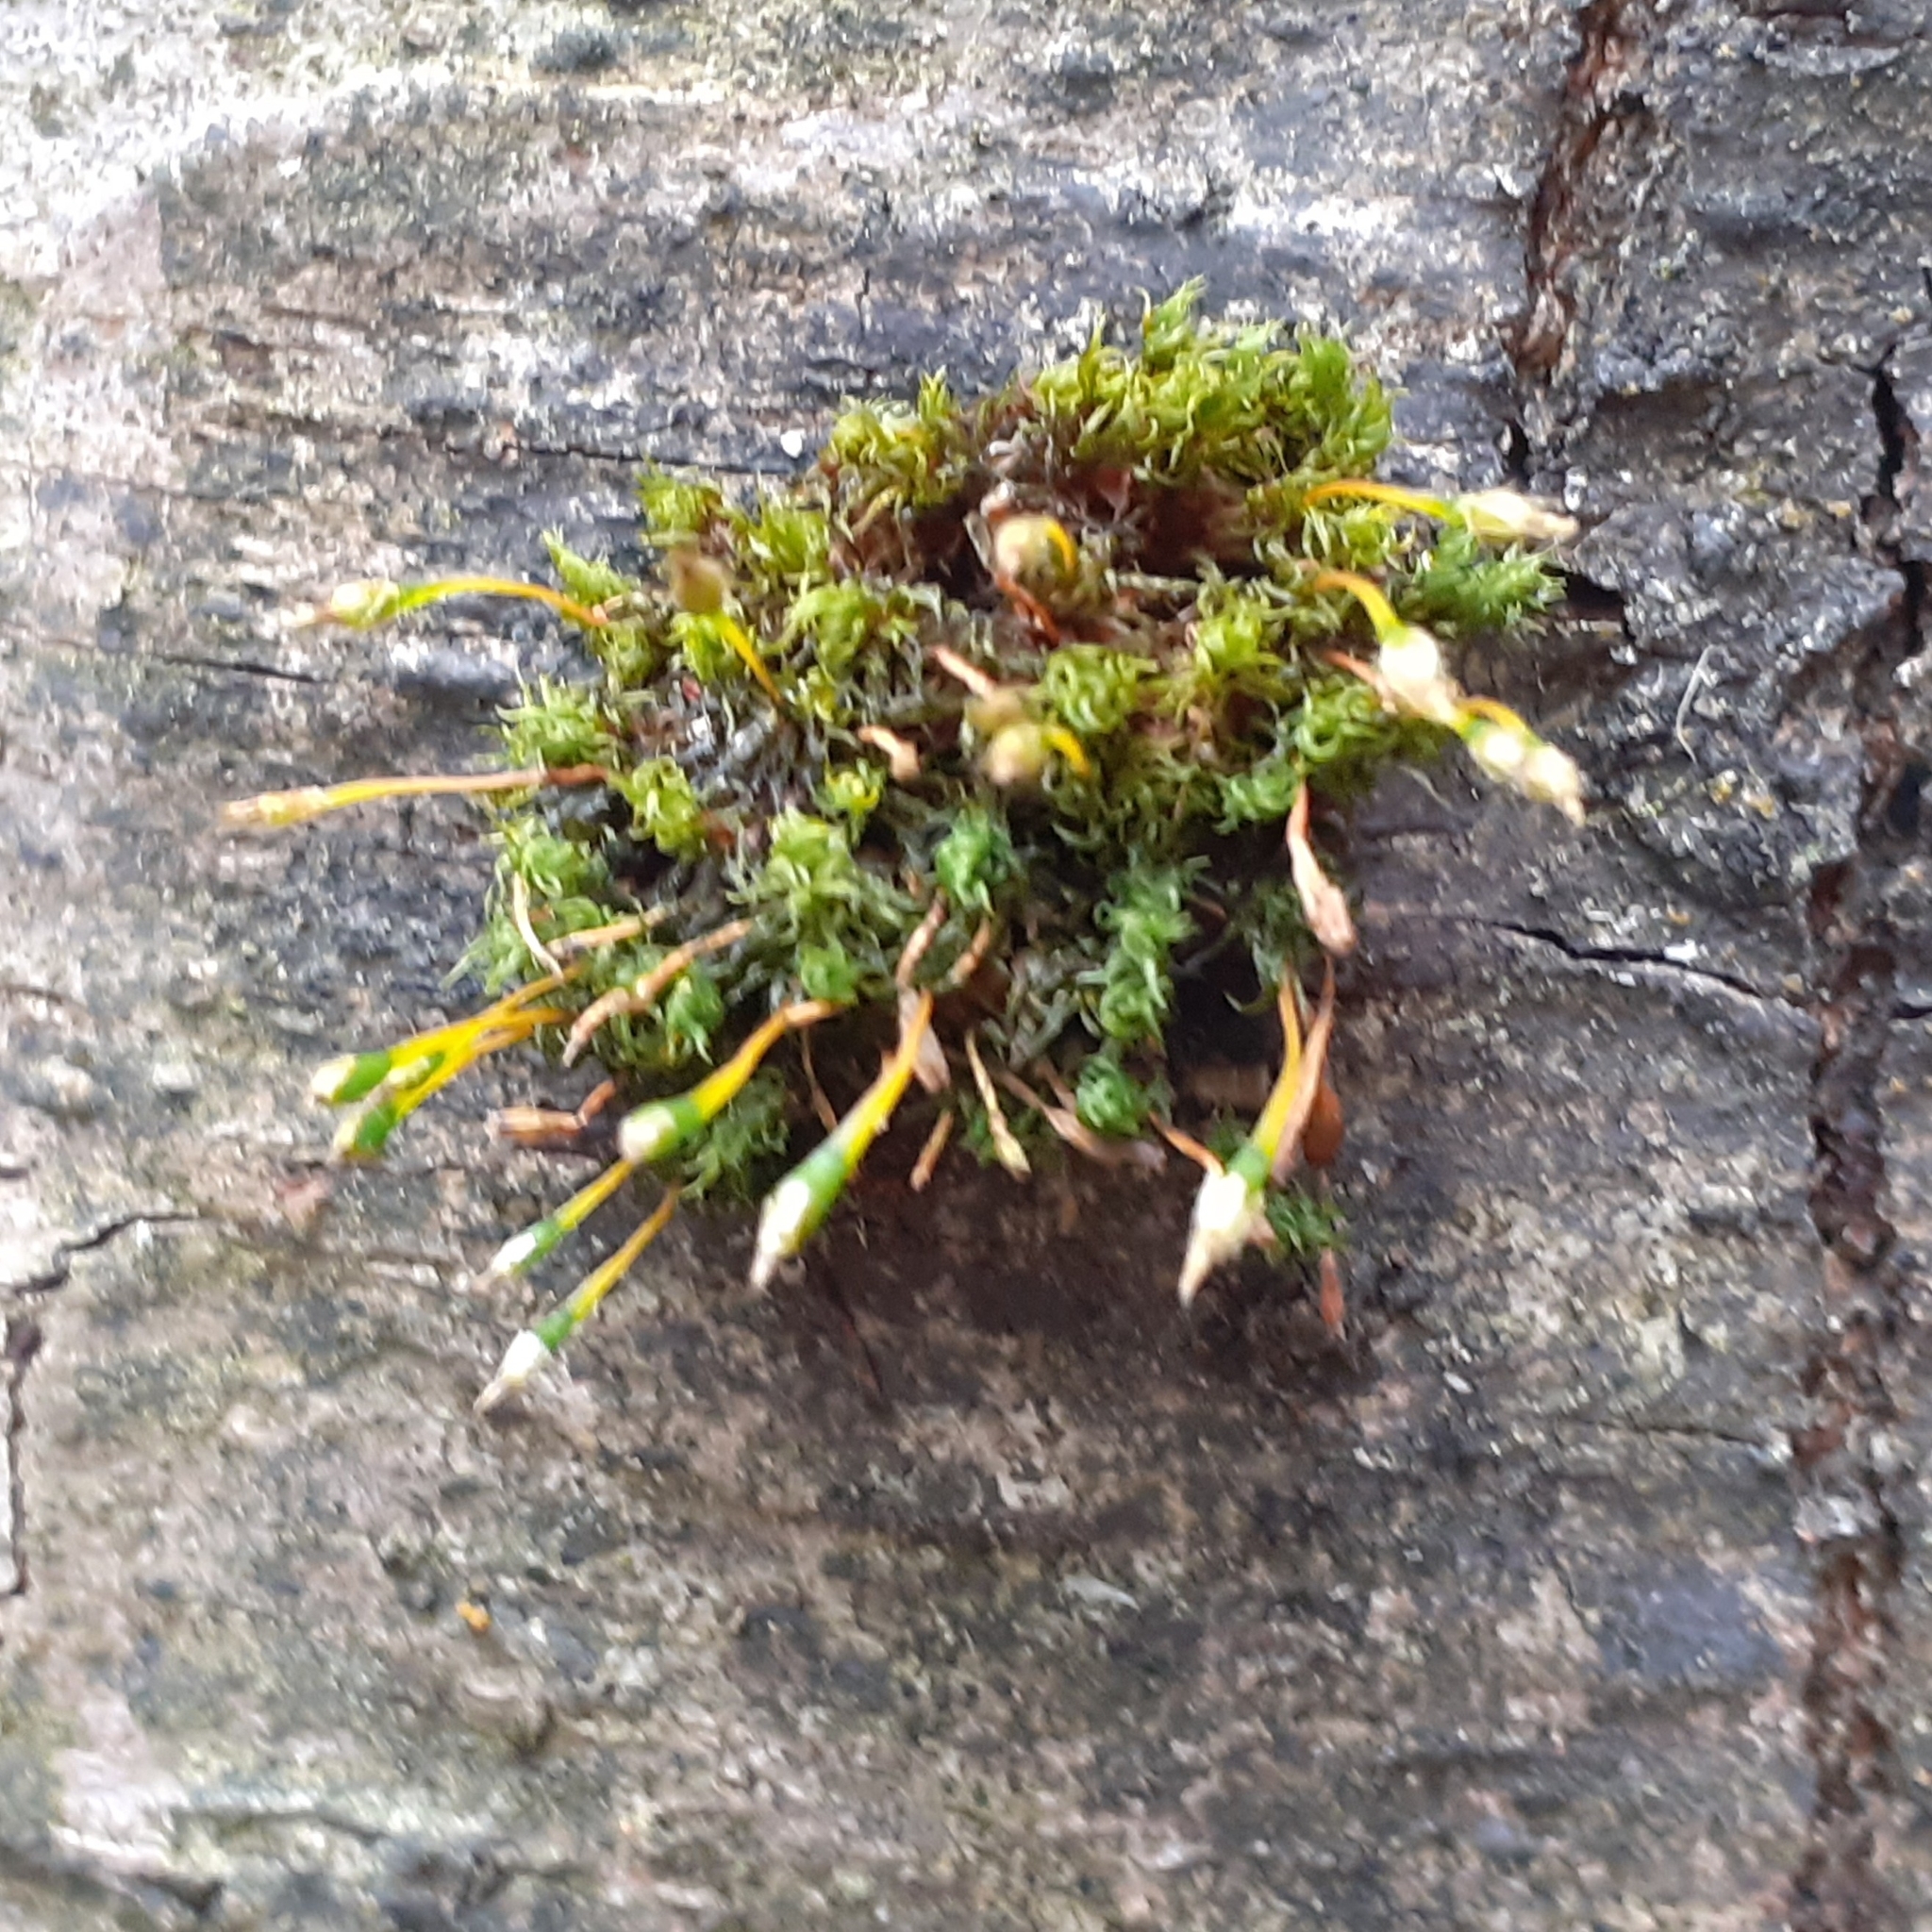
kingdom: Plantae
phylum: Bryophyta
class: Bryopsida
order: Orthotrichales
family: Orthotrichaceae
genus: Ulota
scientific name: Ulota bruchii
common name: Bruch's pincushion
